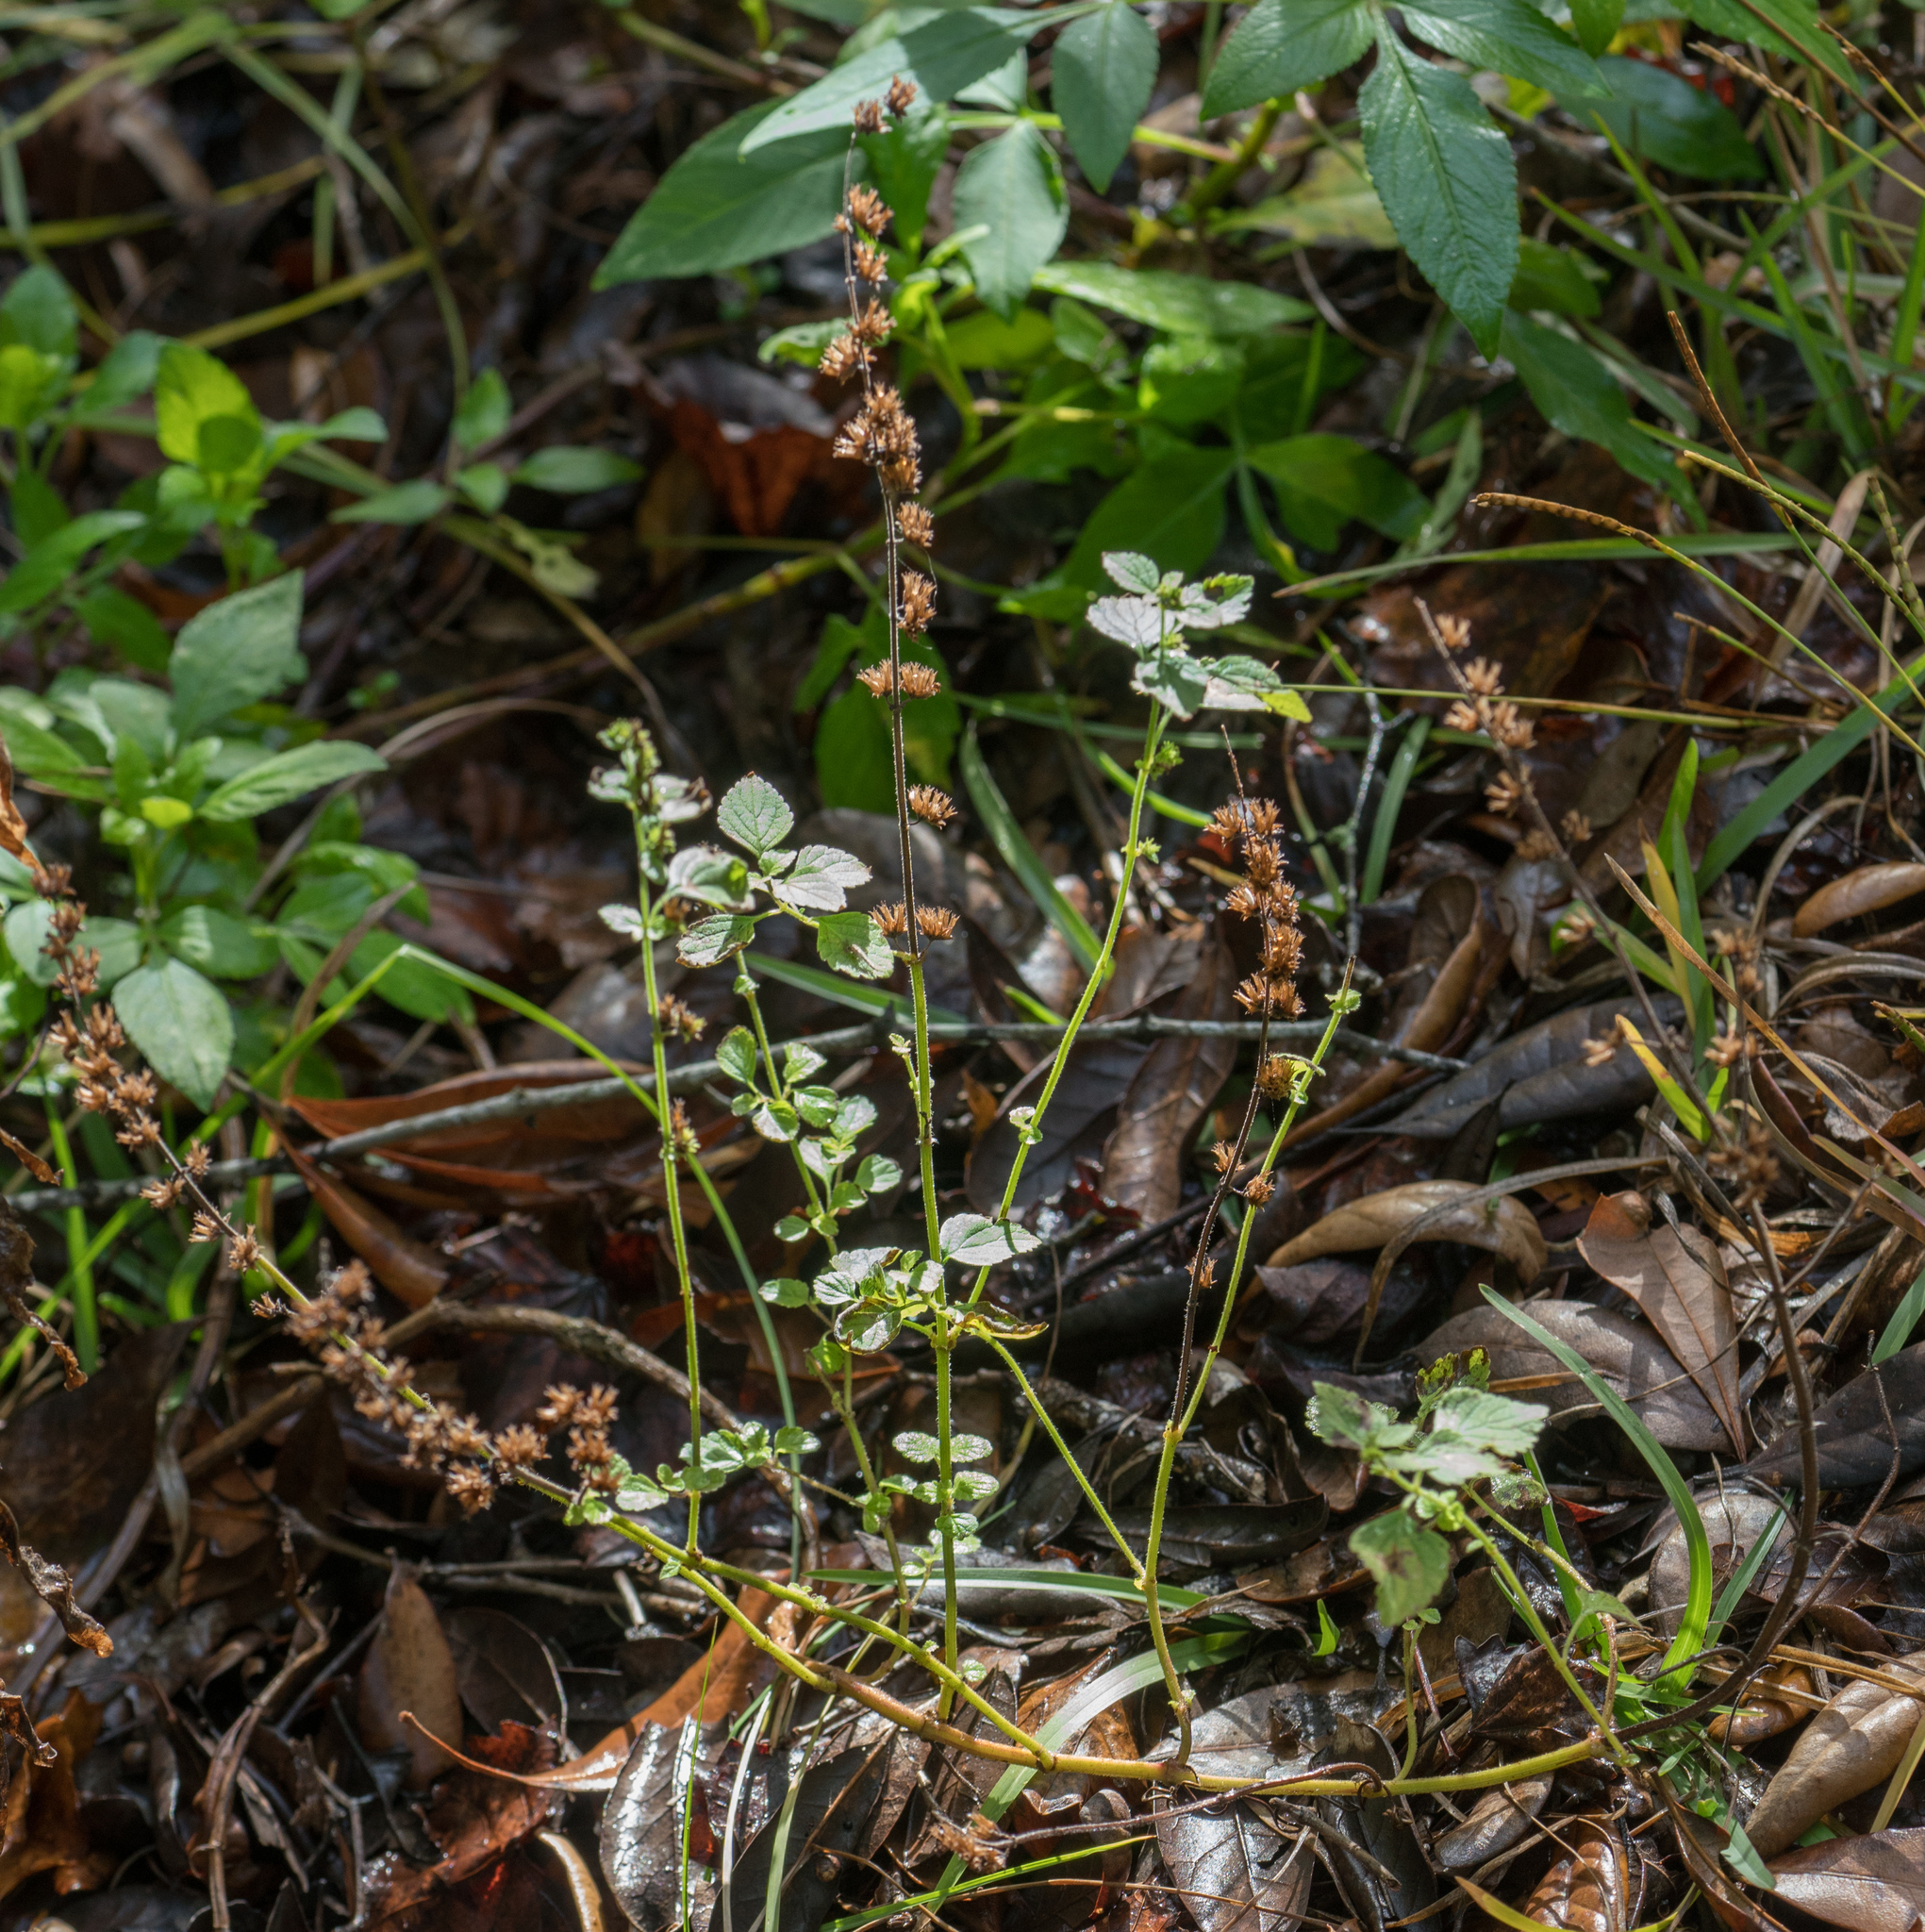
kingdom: Plantae
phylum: Tracheophyta
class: Magnoliopsida
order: Lamiales
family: Lamiaceae
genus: Cantinoa
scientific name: Cantinoa mutabilis
